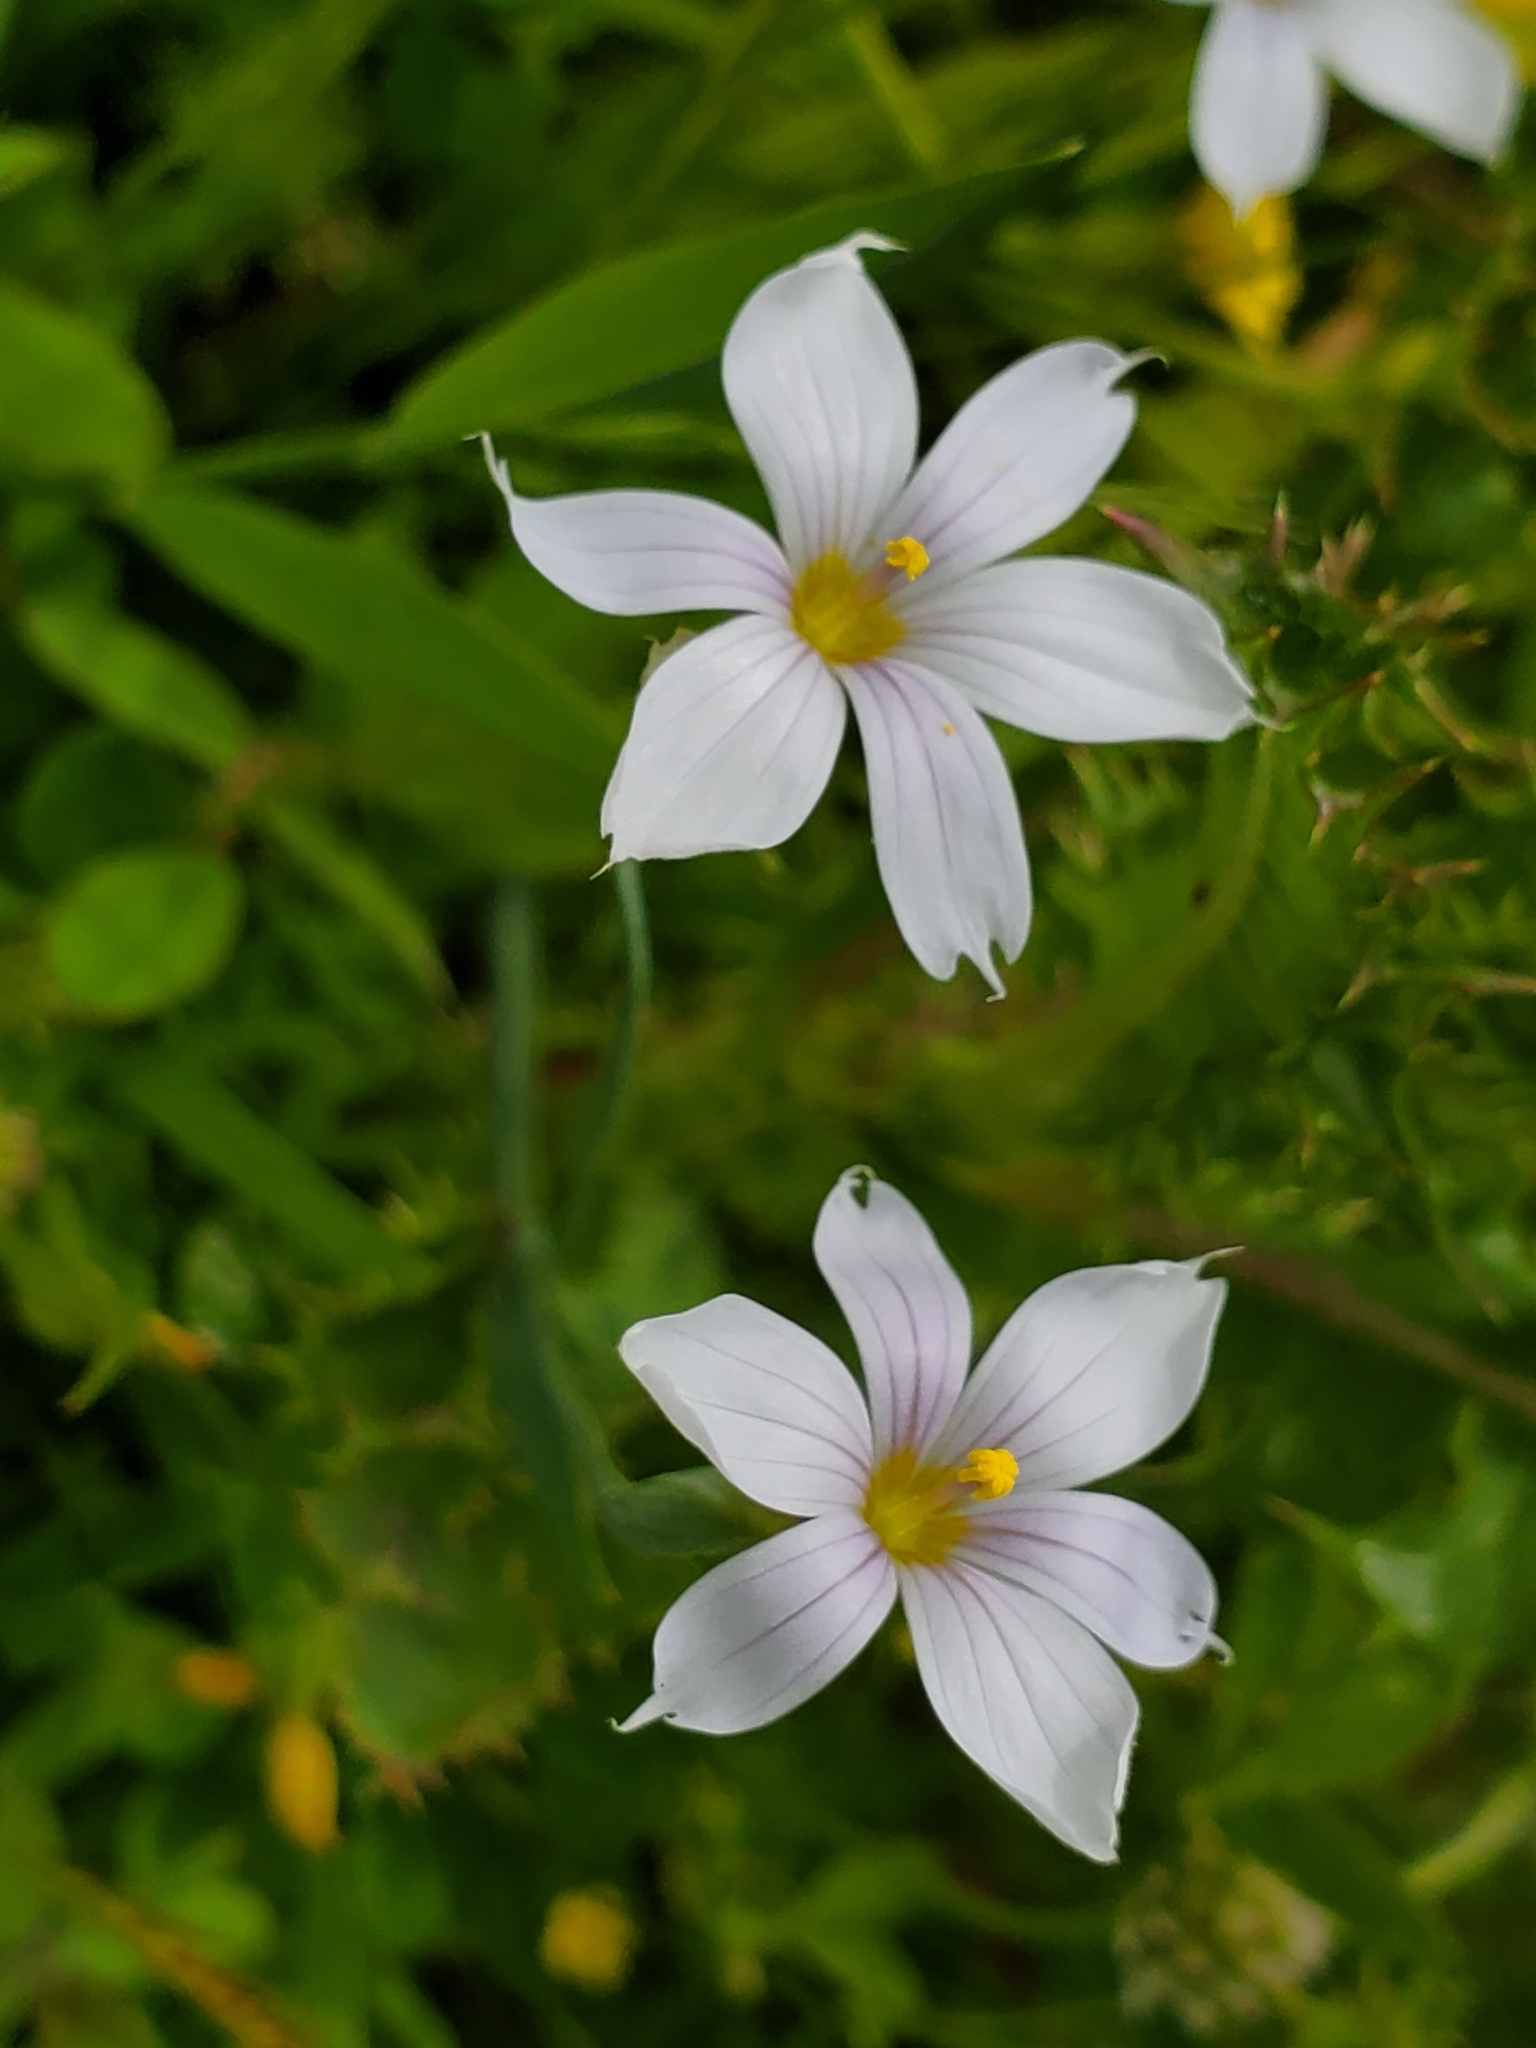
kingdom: Plantae
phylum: Tracheophyta
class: Liliopsida
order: Asparagales
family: Iridaceae
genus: Sisyrinchium
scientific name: Sisyrinchium bellum
